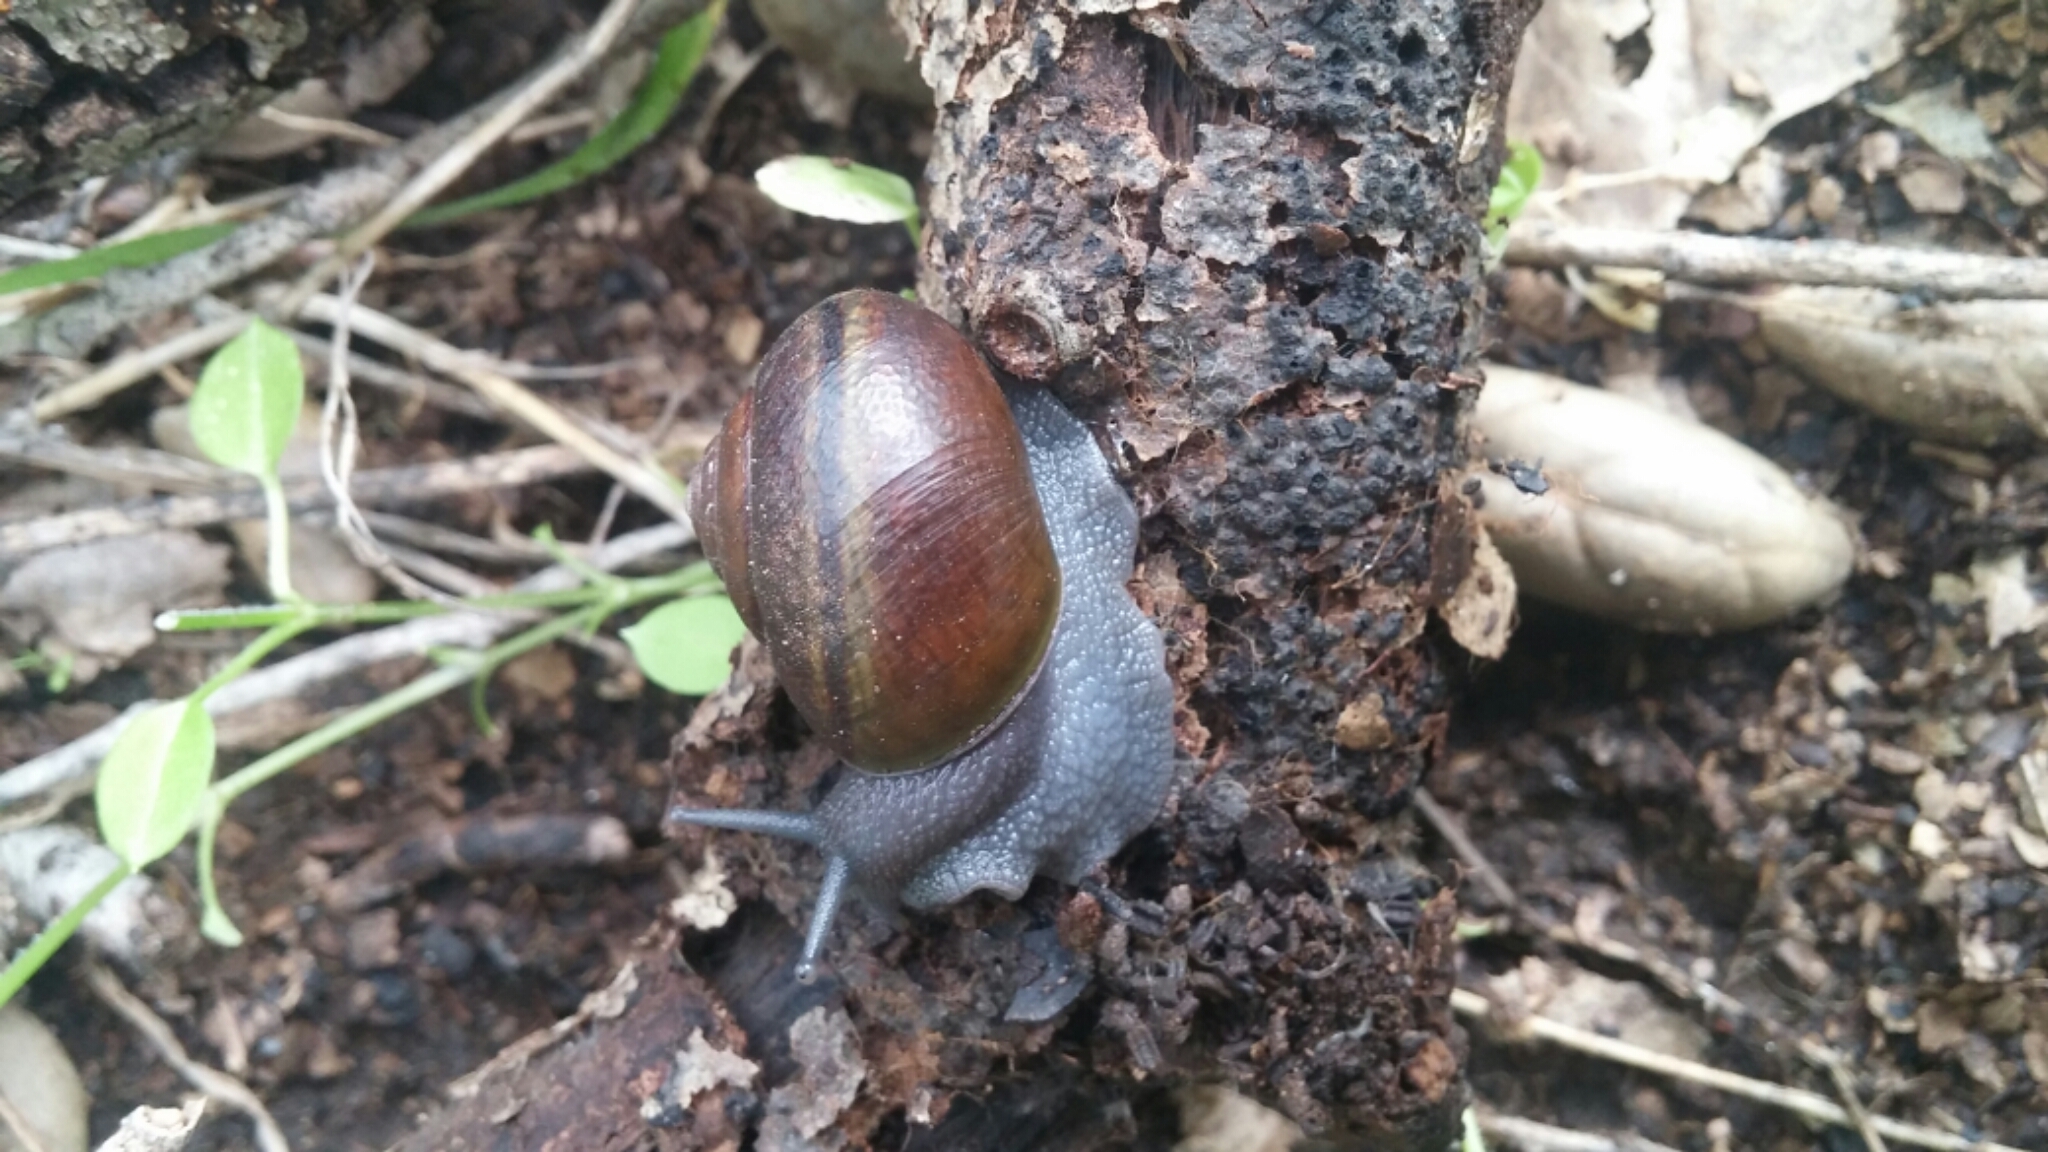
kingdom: Animalia
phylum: Mollusca
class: Gastropoda
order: Stylommatophora
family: Xanthonychidae
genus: Helminthoglypta
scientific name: Helminthoglypta tudiculata
